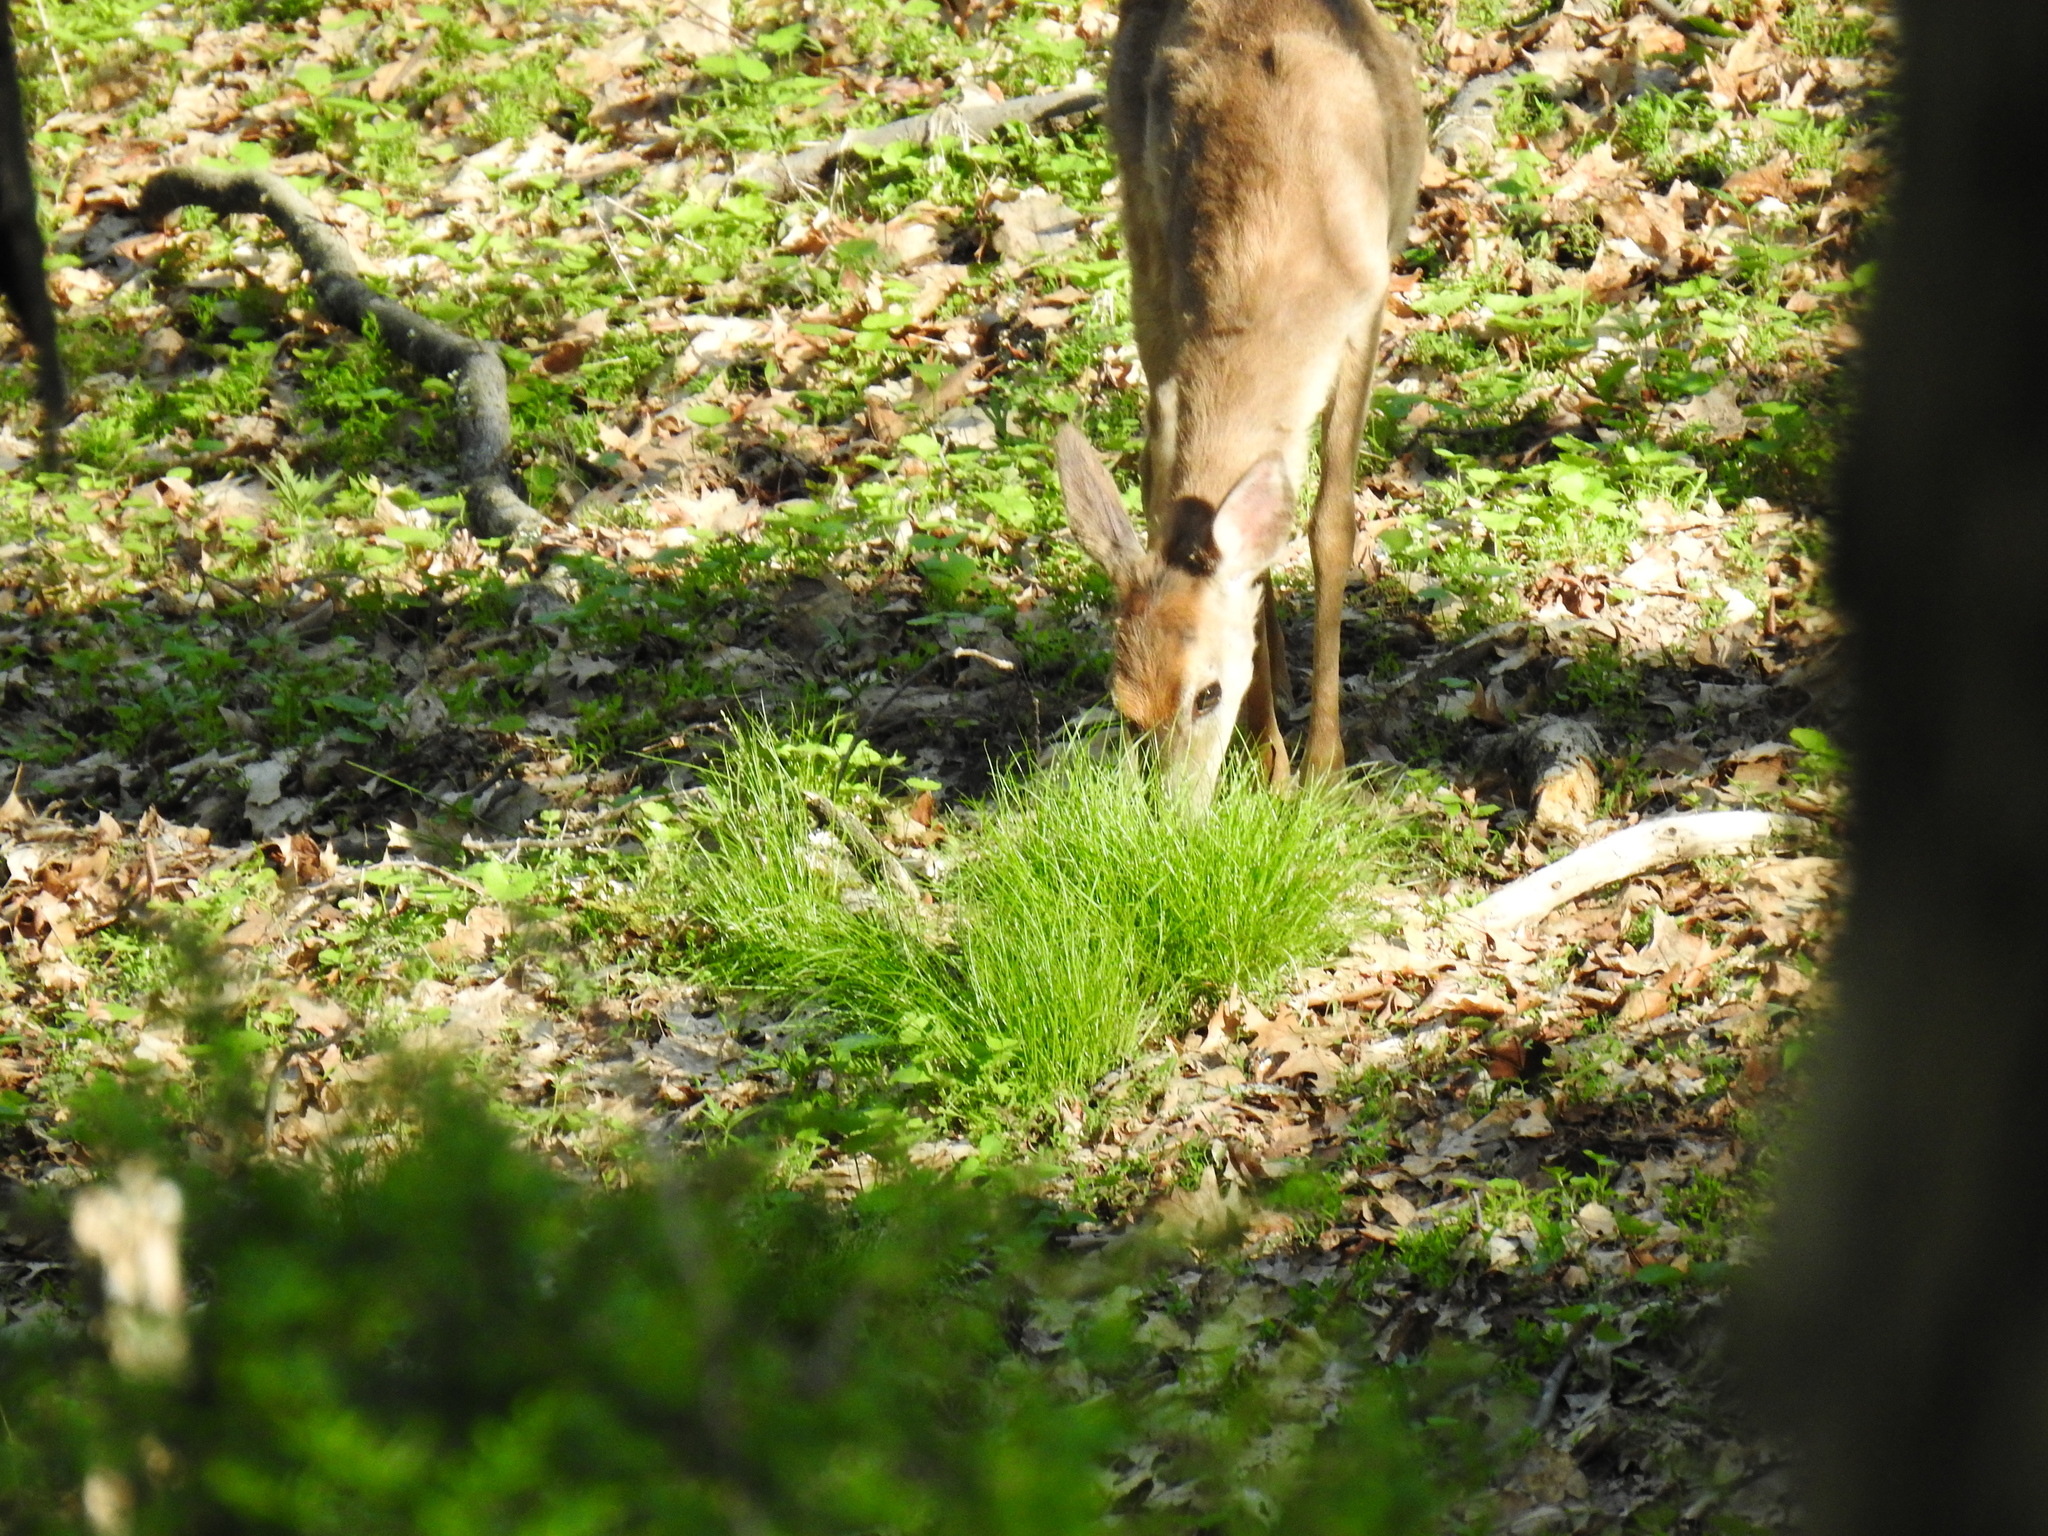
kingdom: Animalia
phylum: Chordata
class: Mammalia
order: Artiodactyla
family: Cervidae
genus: Odocoileus
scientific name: Odocoileus virginianus
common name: White-tailed deer
